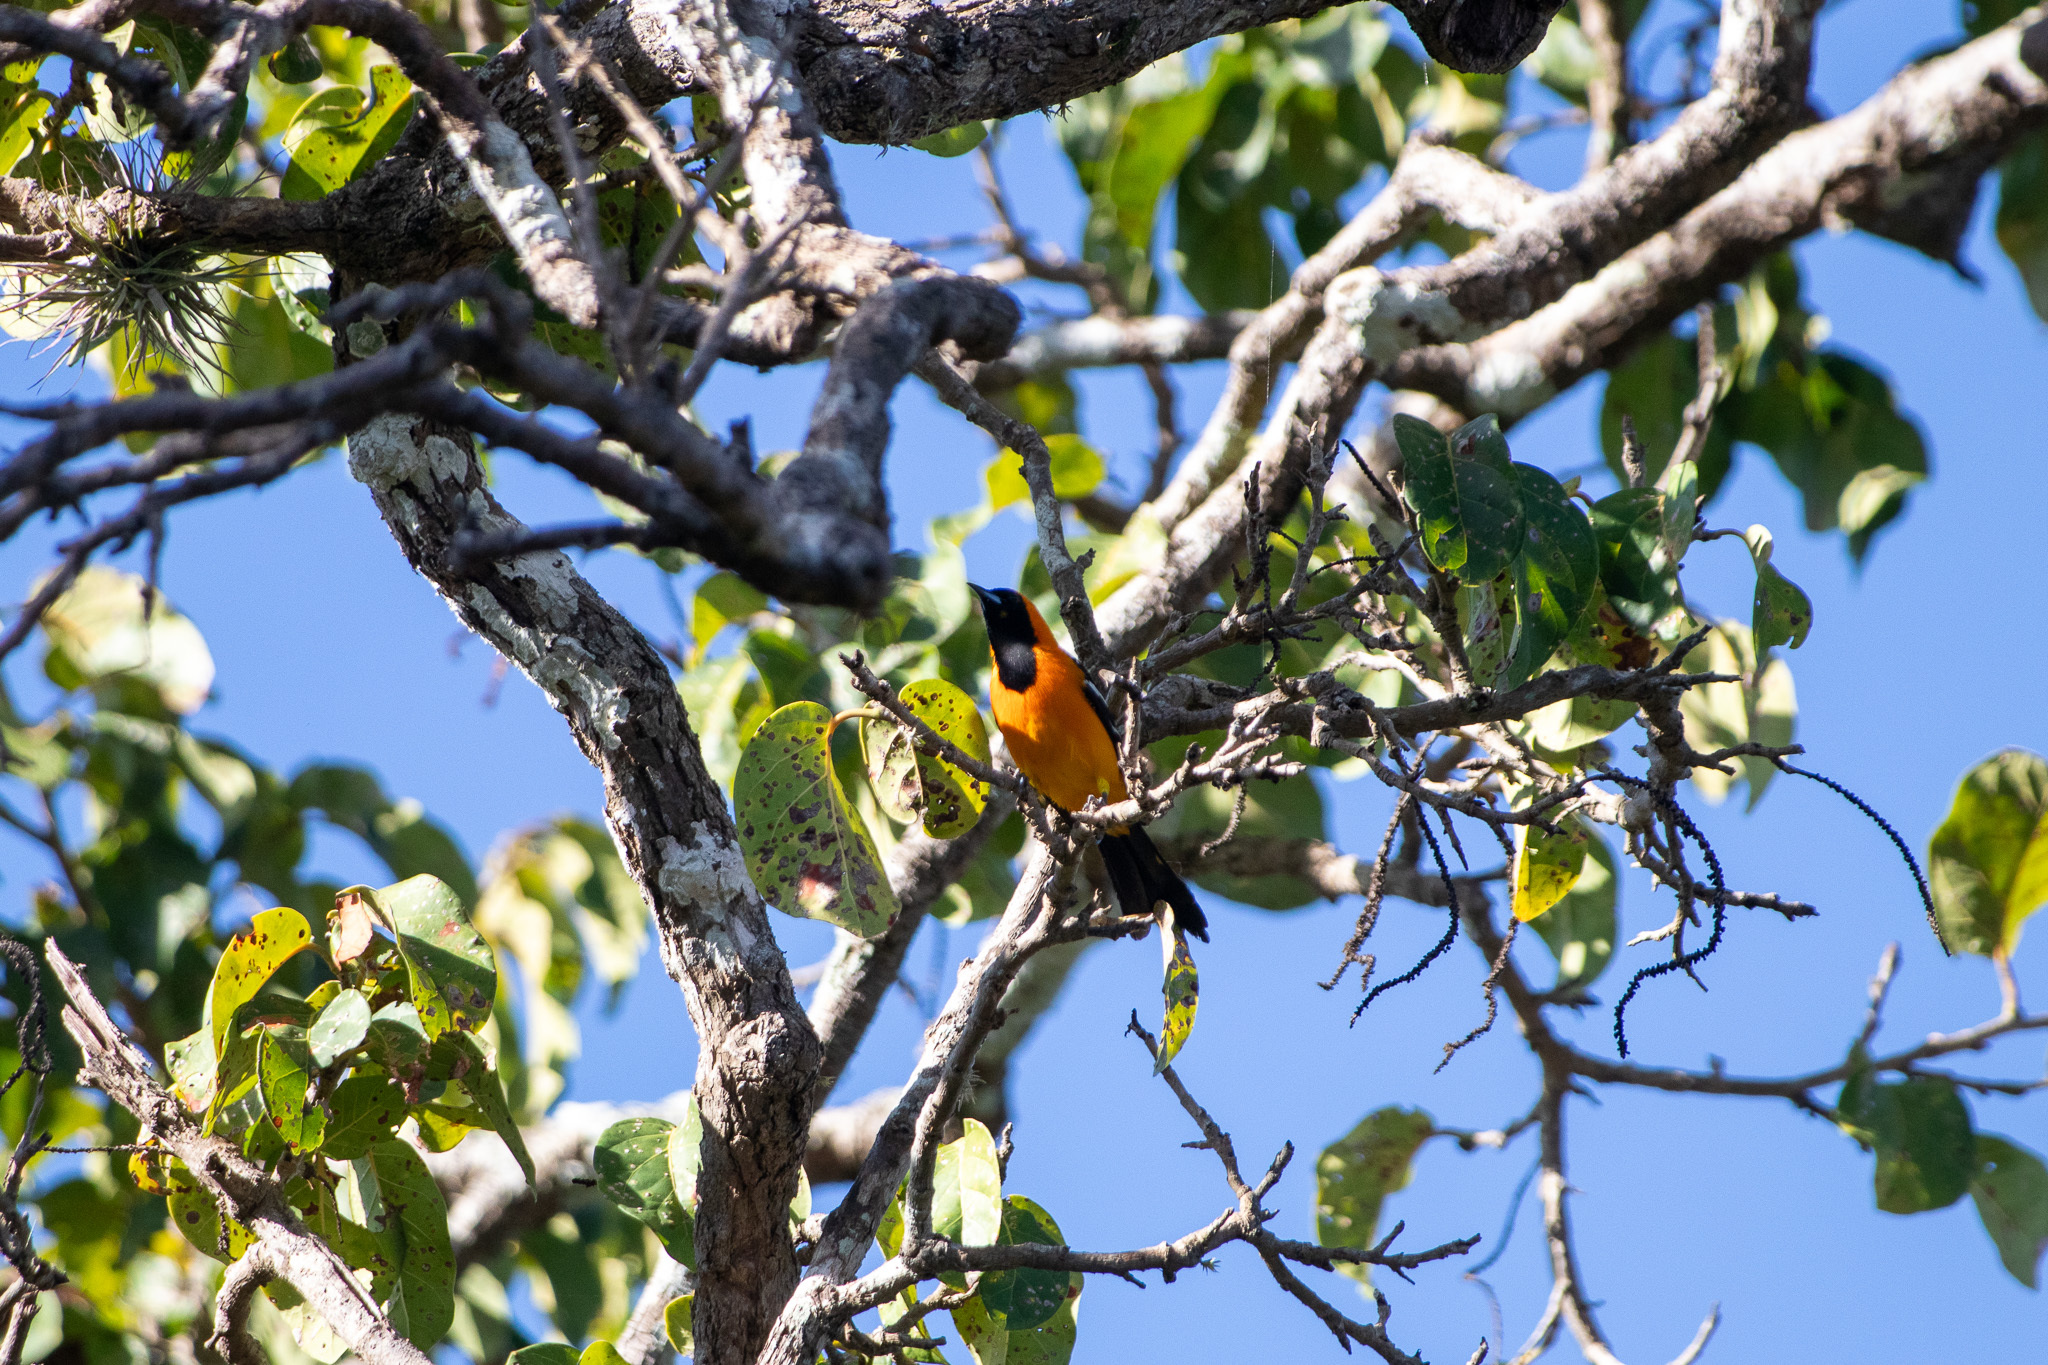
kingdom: Animalia
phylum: Chordata
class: Aves
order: Passeriformes
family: Icteridae
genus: Icterus
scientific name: Icterus cucullatus
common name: Hooded oriole
